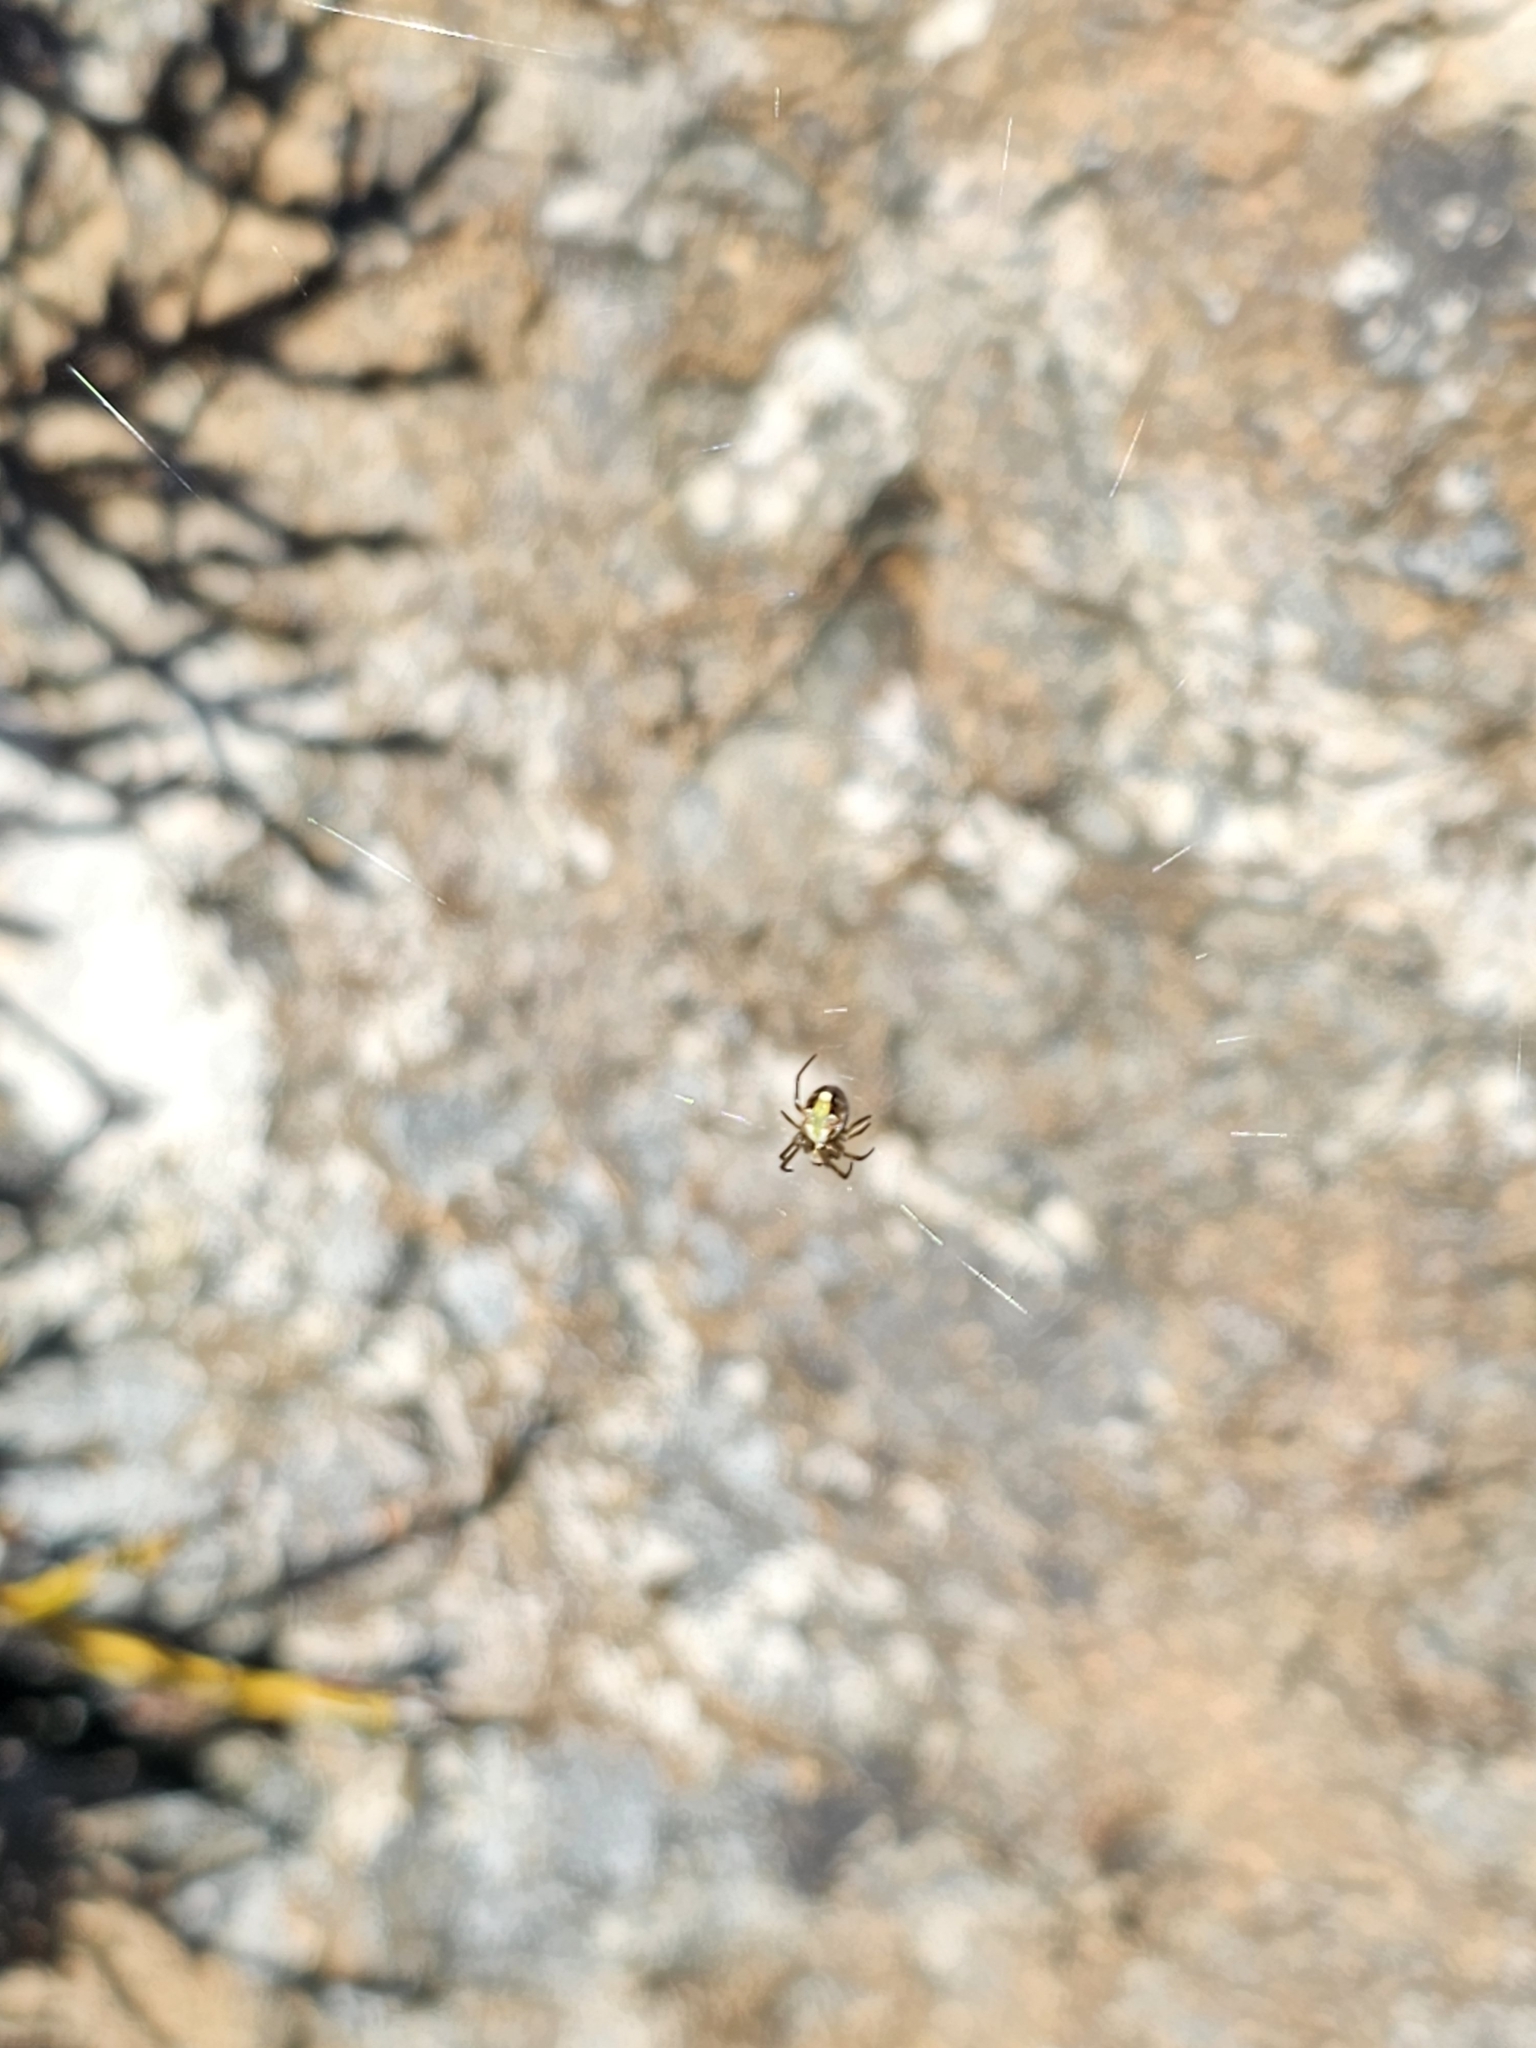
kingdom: Animalia
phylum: Arthropoda
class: Arachnida
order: Araneae
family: Araneidae
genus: Novaranea
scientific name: Novaranea queribunda
